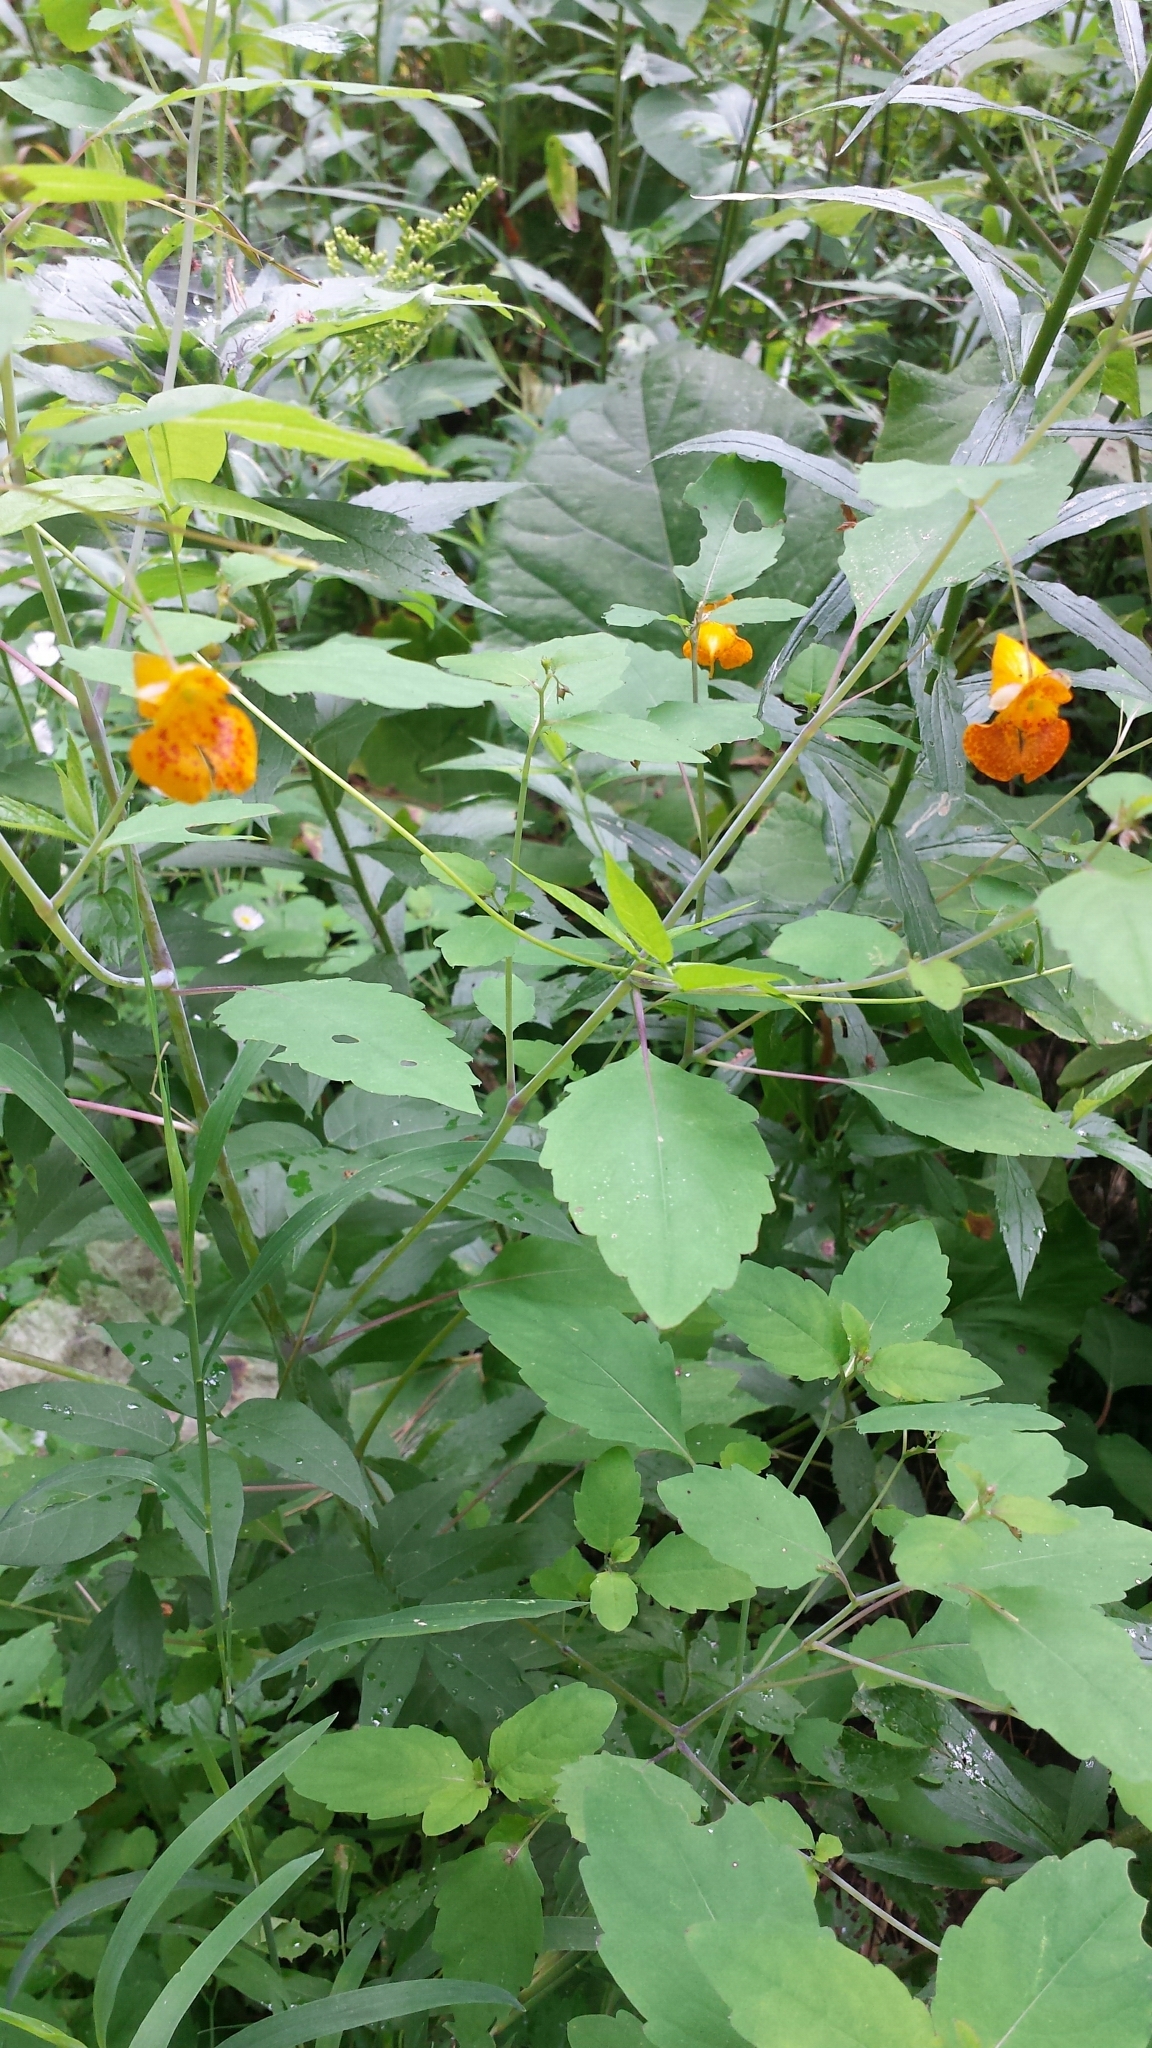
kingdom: Plantae
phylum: Tracheophyta
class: Magnoliopsida
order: Ericales
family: Balsaminaceae
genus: Impatiens
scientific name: Impatiens capensis
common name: Orange balsam
